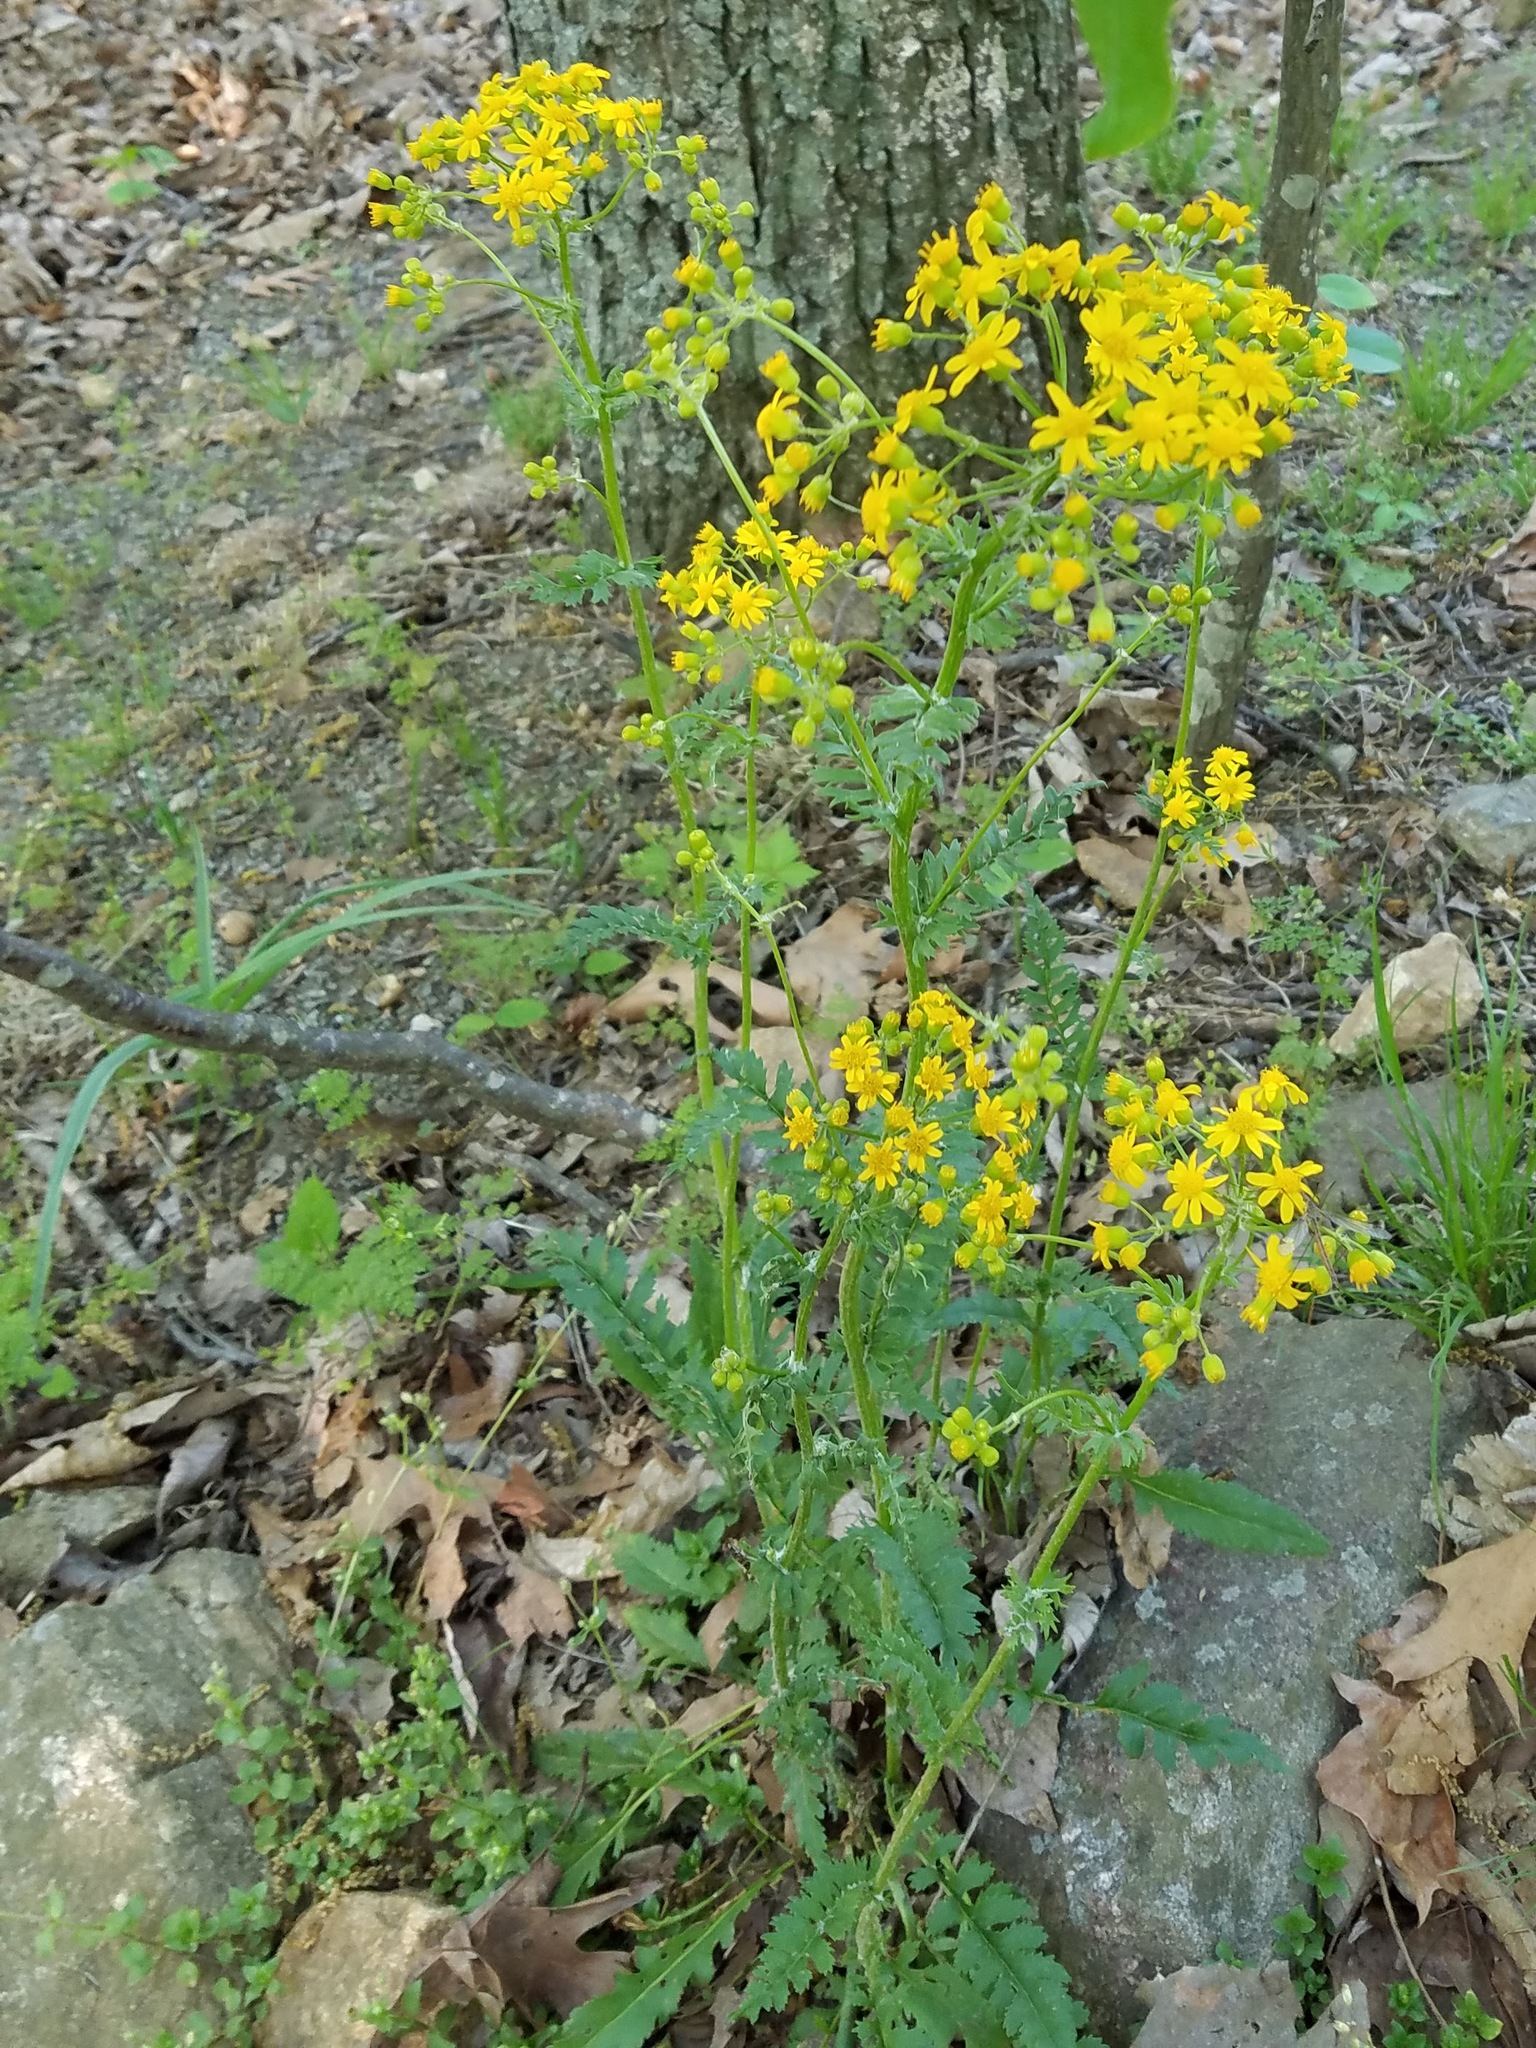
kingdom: Plantae
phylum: Tracheophyta
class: Magnoliopsida
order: Asterales
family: Asteraceae
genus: Packera
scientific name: Packera anonyma
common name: Small ragwort
